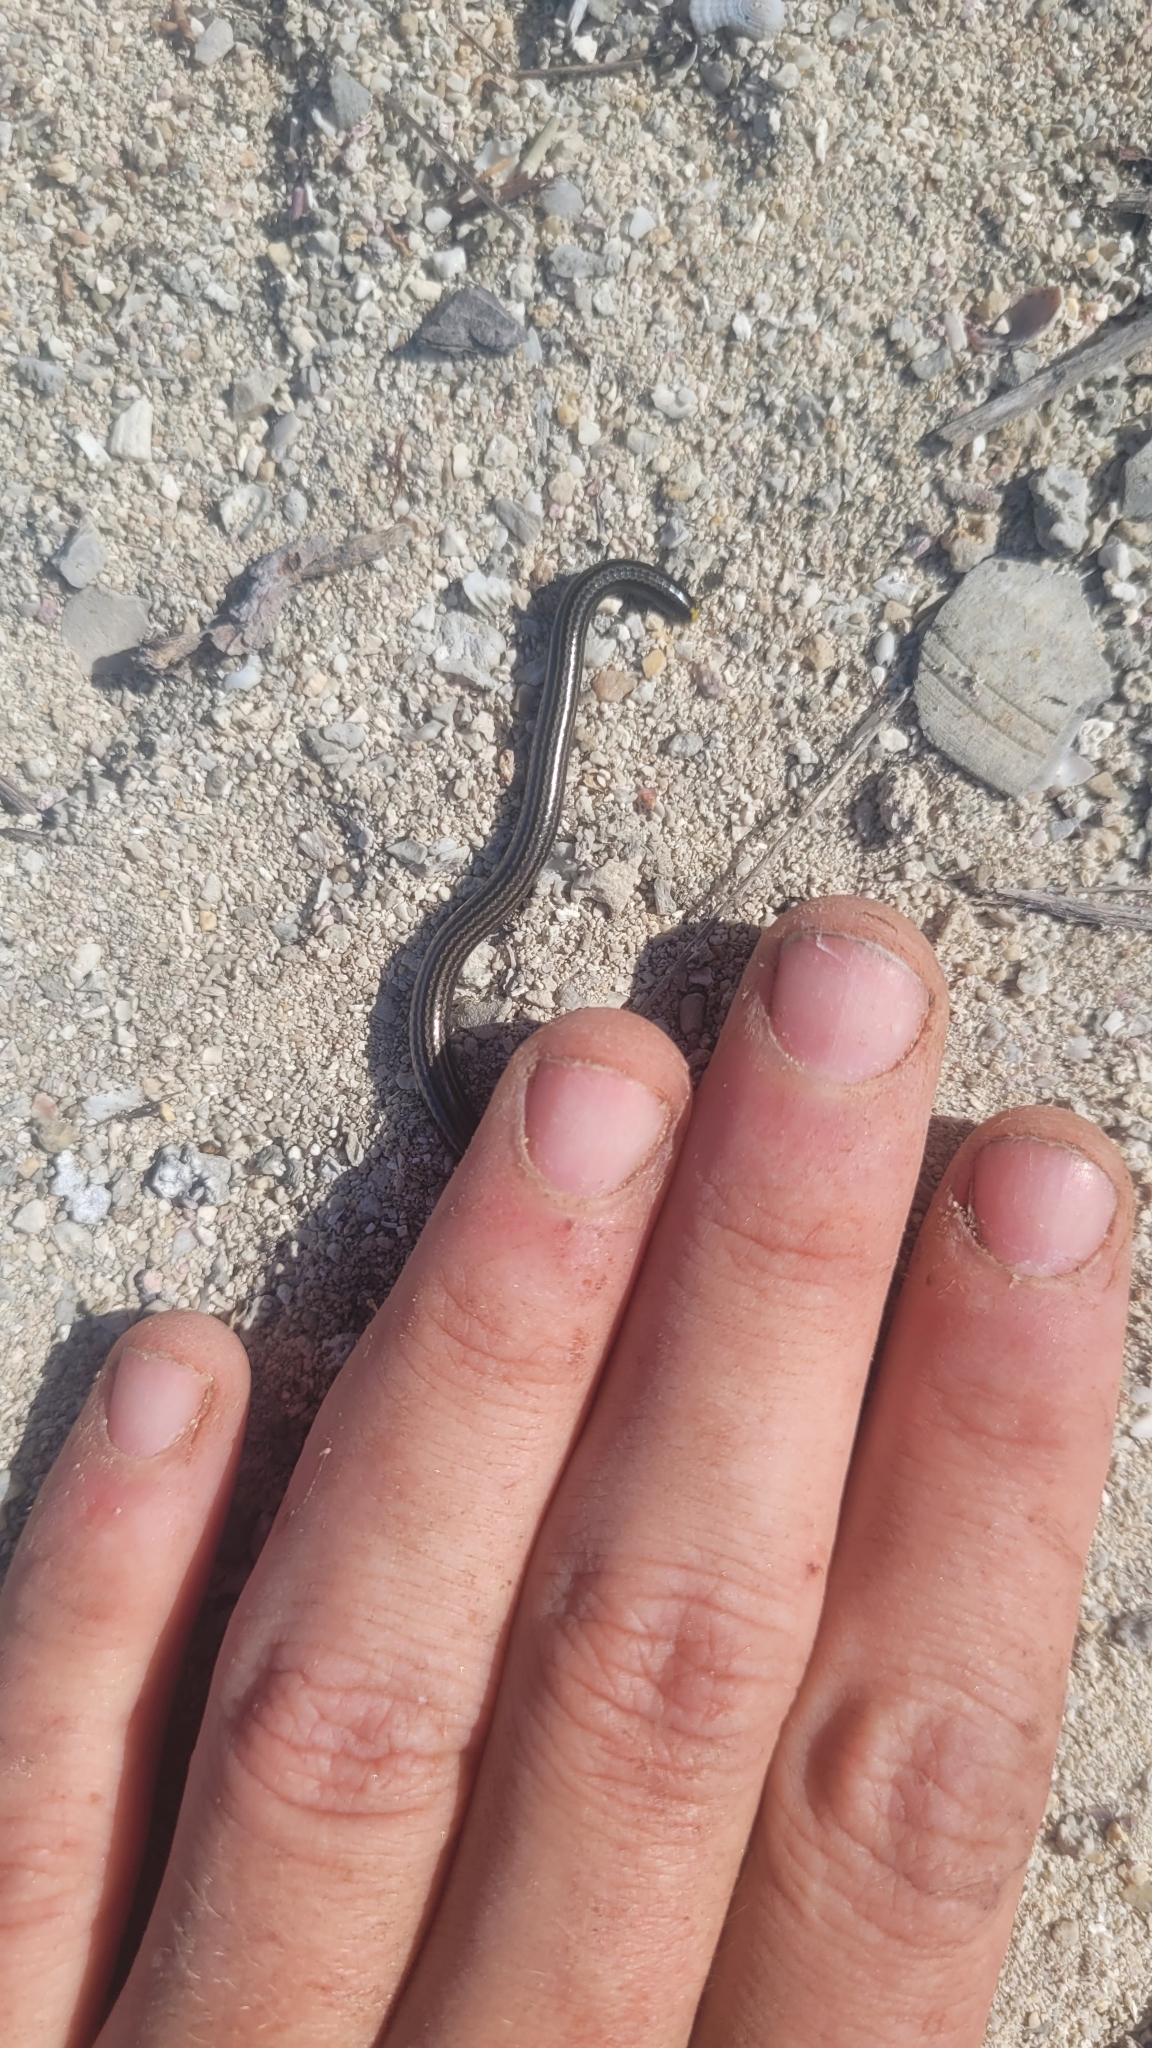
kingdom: Animalia
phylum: Chordata
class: Squamata
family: Leptotyphlopidae
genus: Epictia
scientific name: Epictia magnamaculata
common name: Black blind snake
